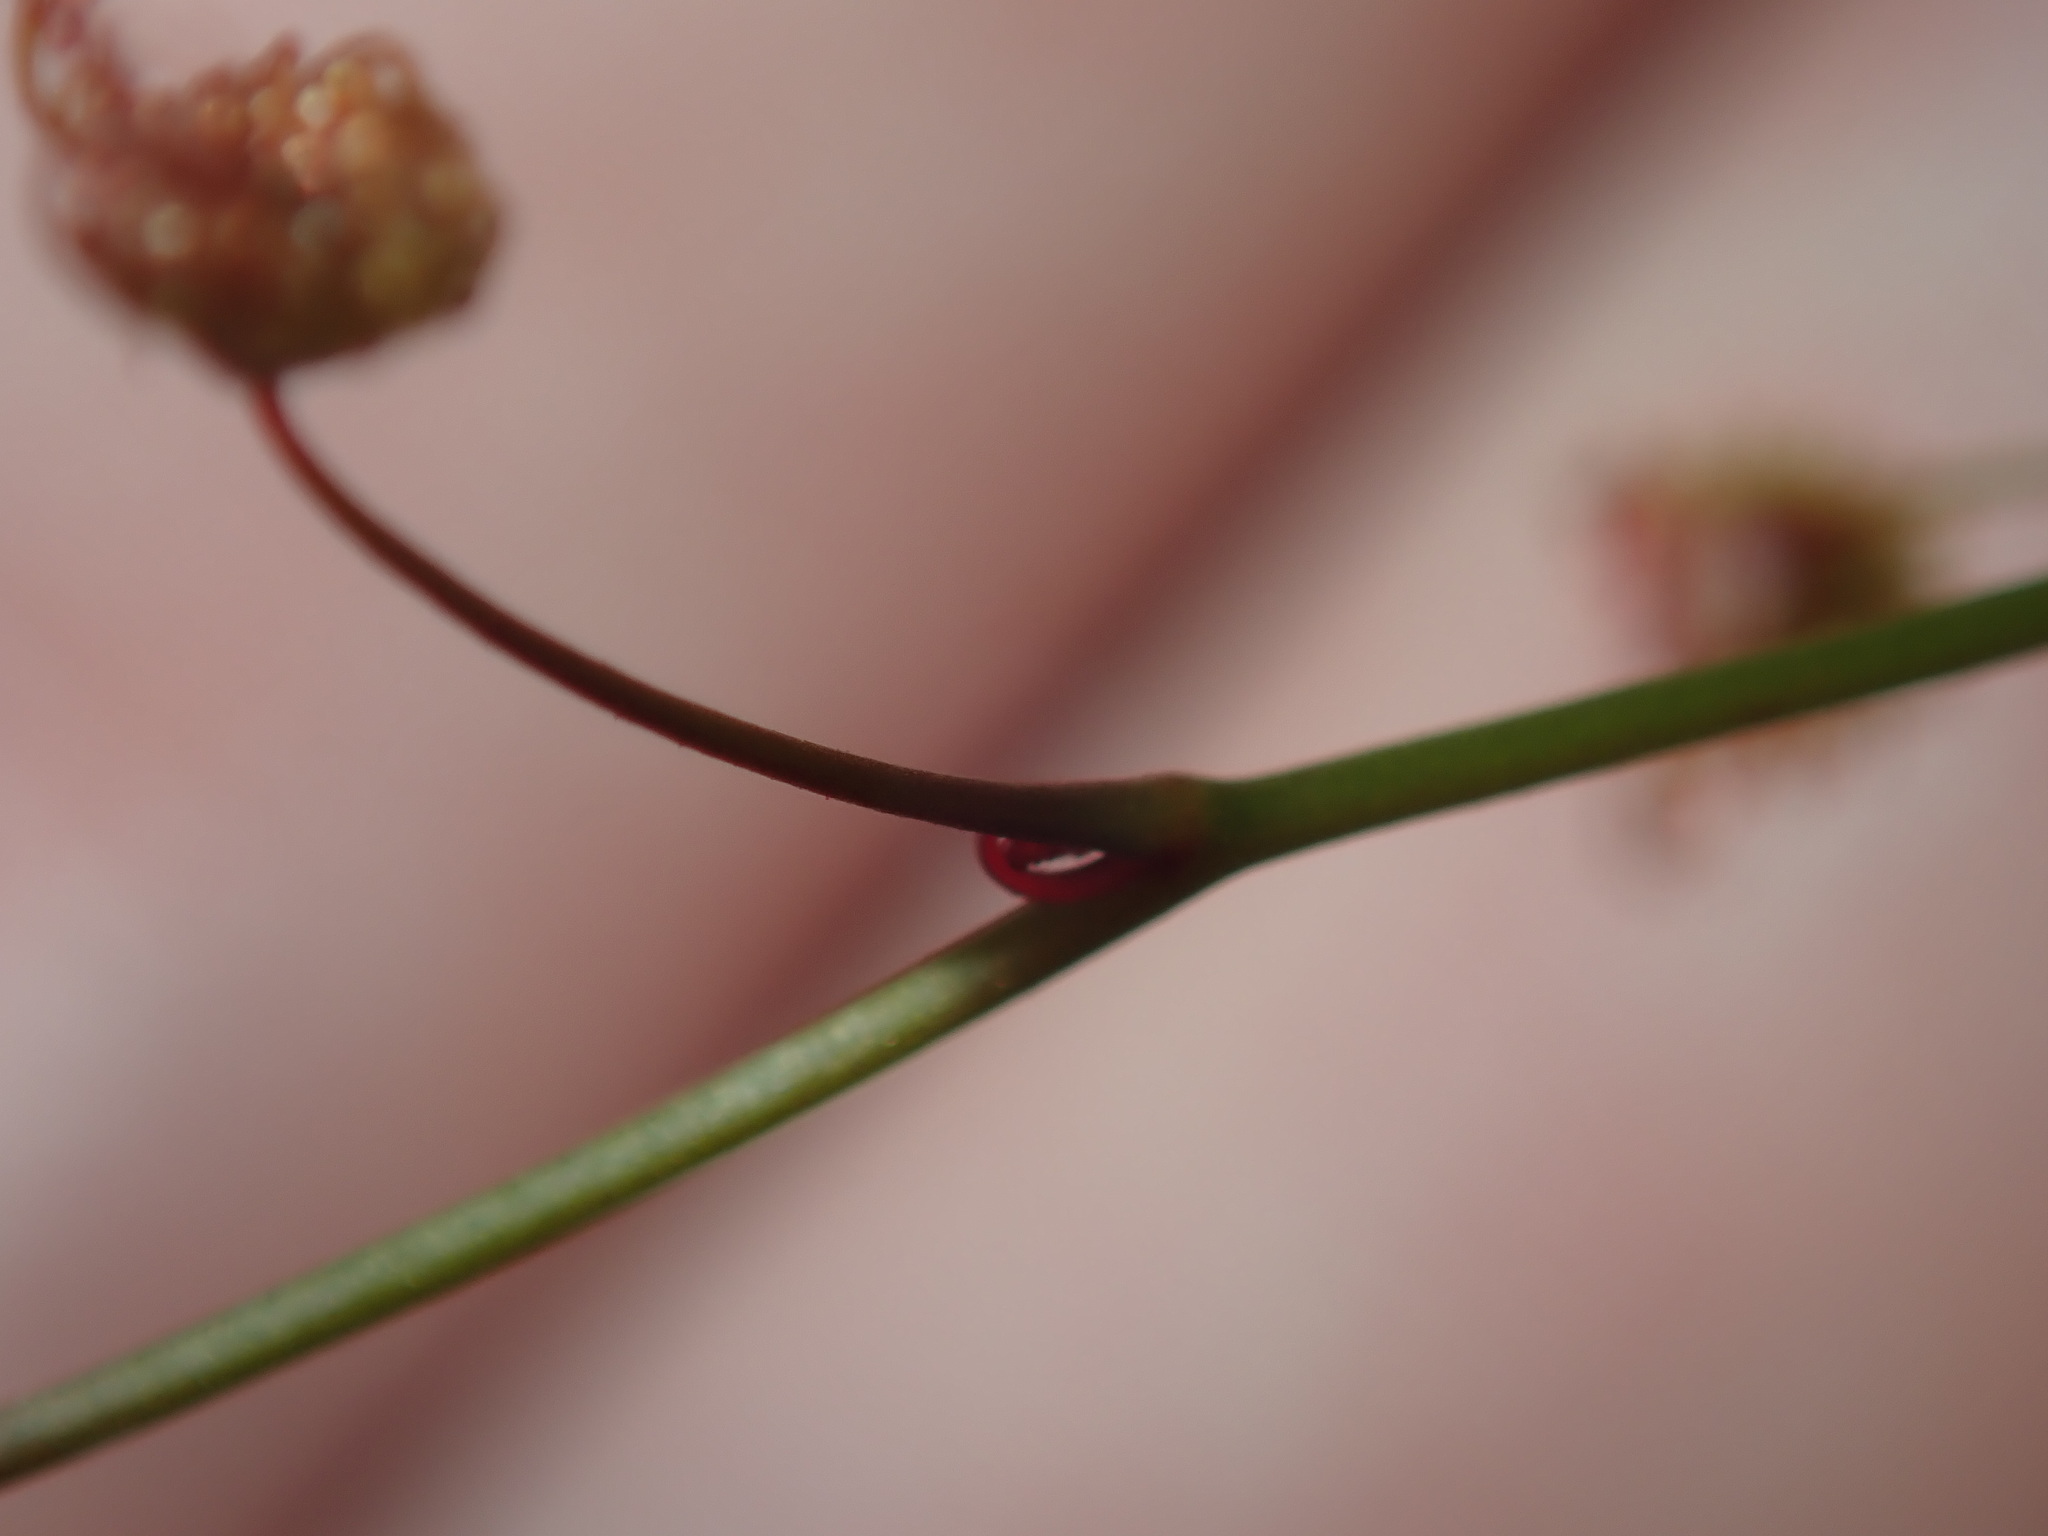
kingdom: Plantae
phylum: Tracheophyta
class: Magnoliopsida
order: Caryophyllales
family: Droseraceae
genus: Drosera
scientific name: Drosera peltata
